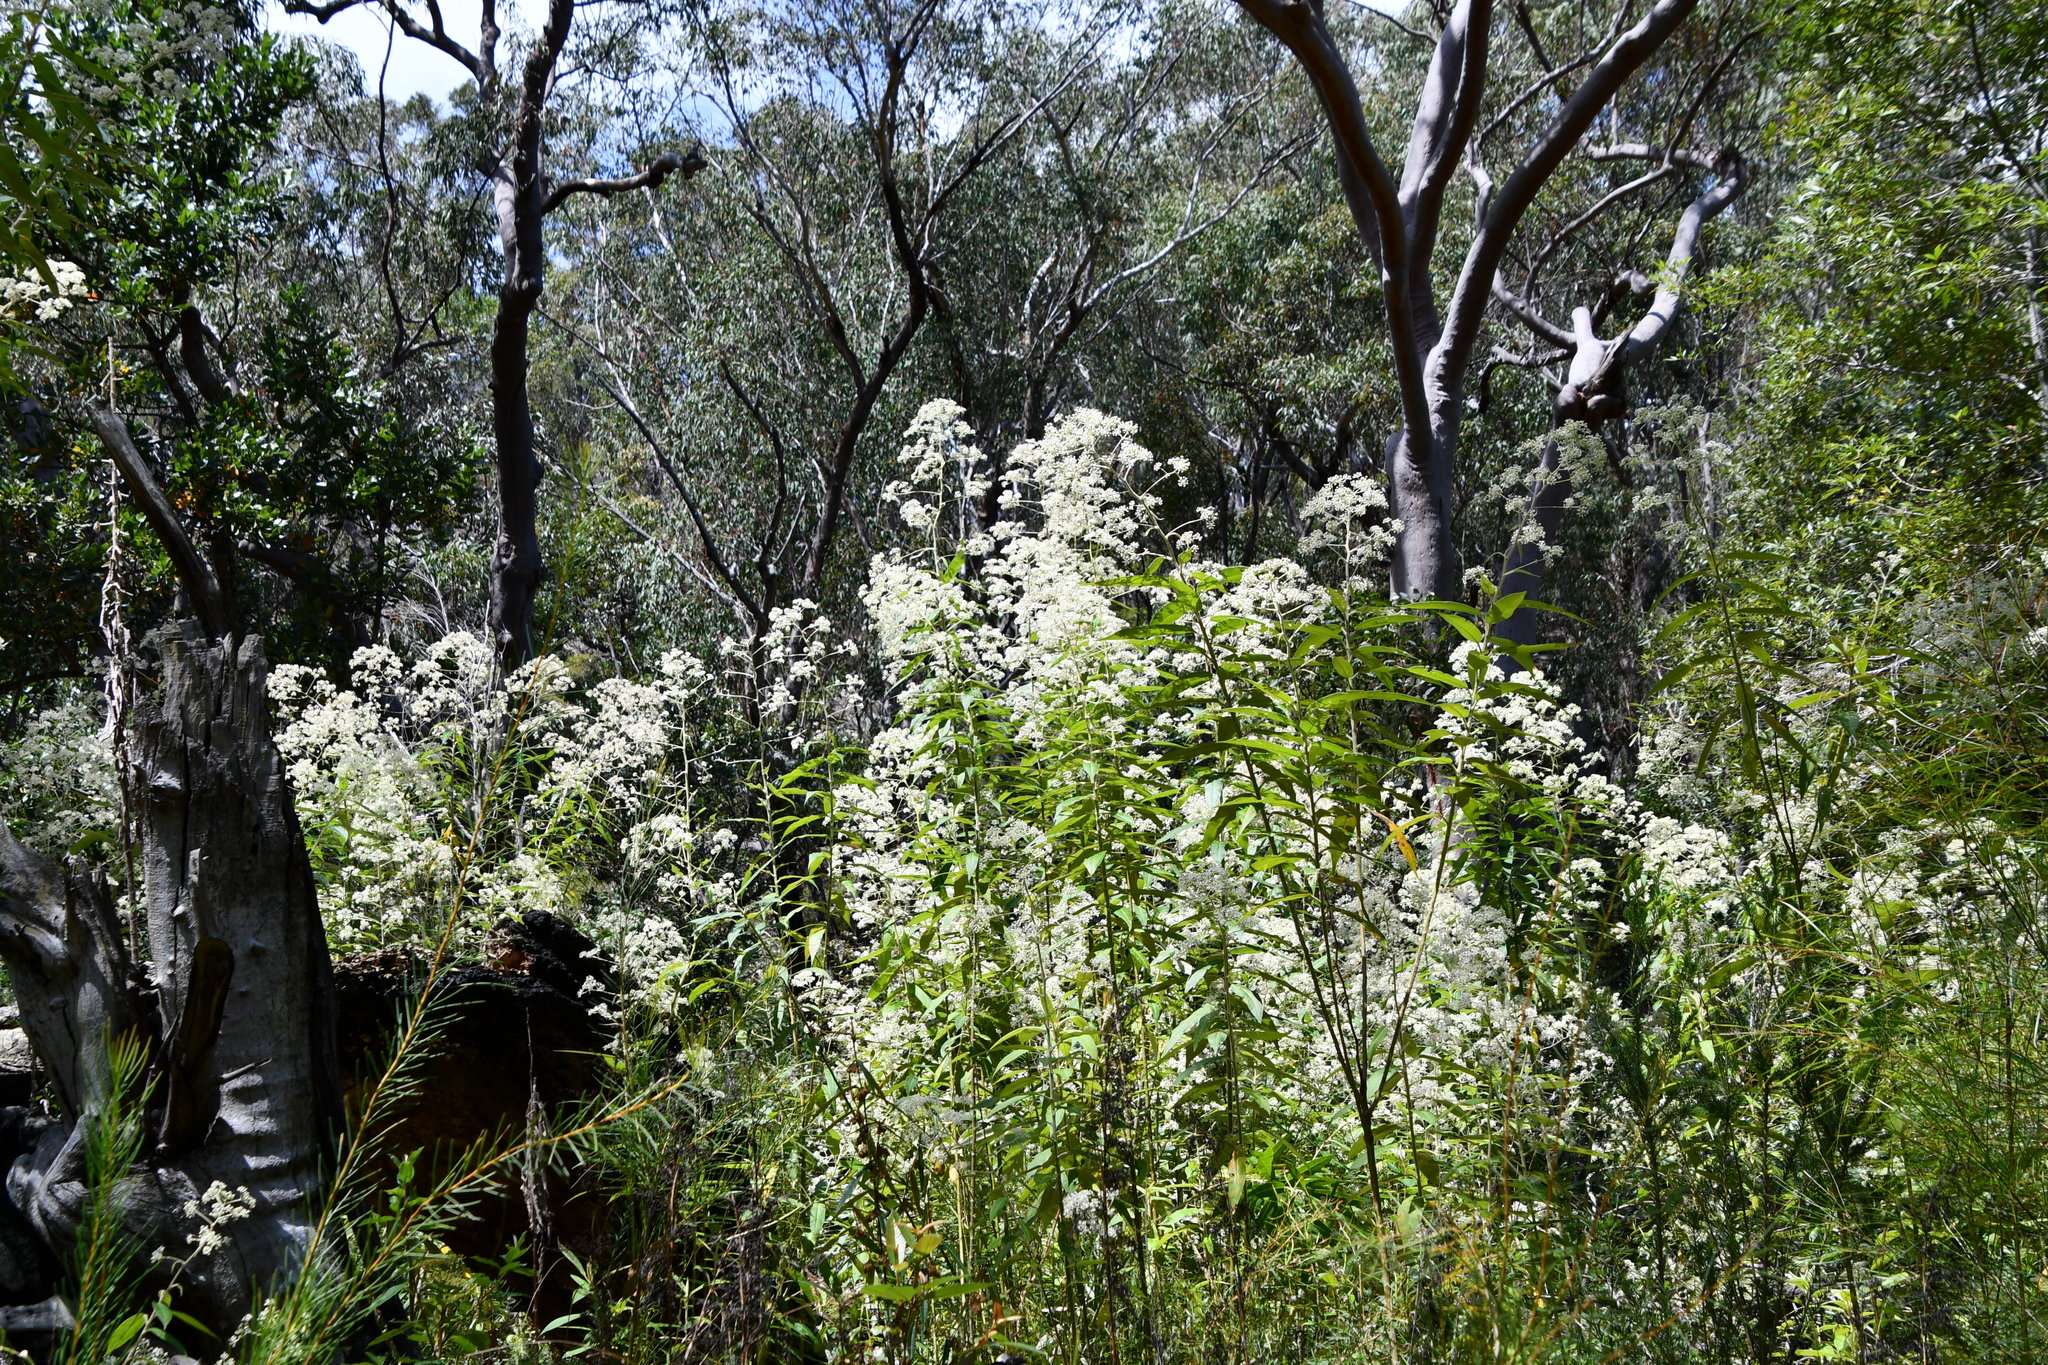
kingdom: Plantae
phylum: Tracheophyta
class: Magnoliopsida
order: Apiales
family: Araliaceae
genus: Astrotricha
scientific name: Astrotricha floccosa
